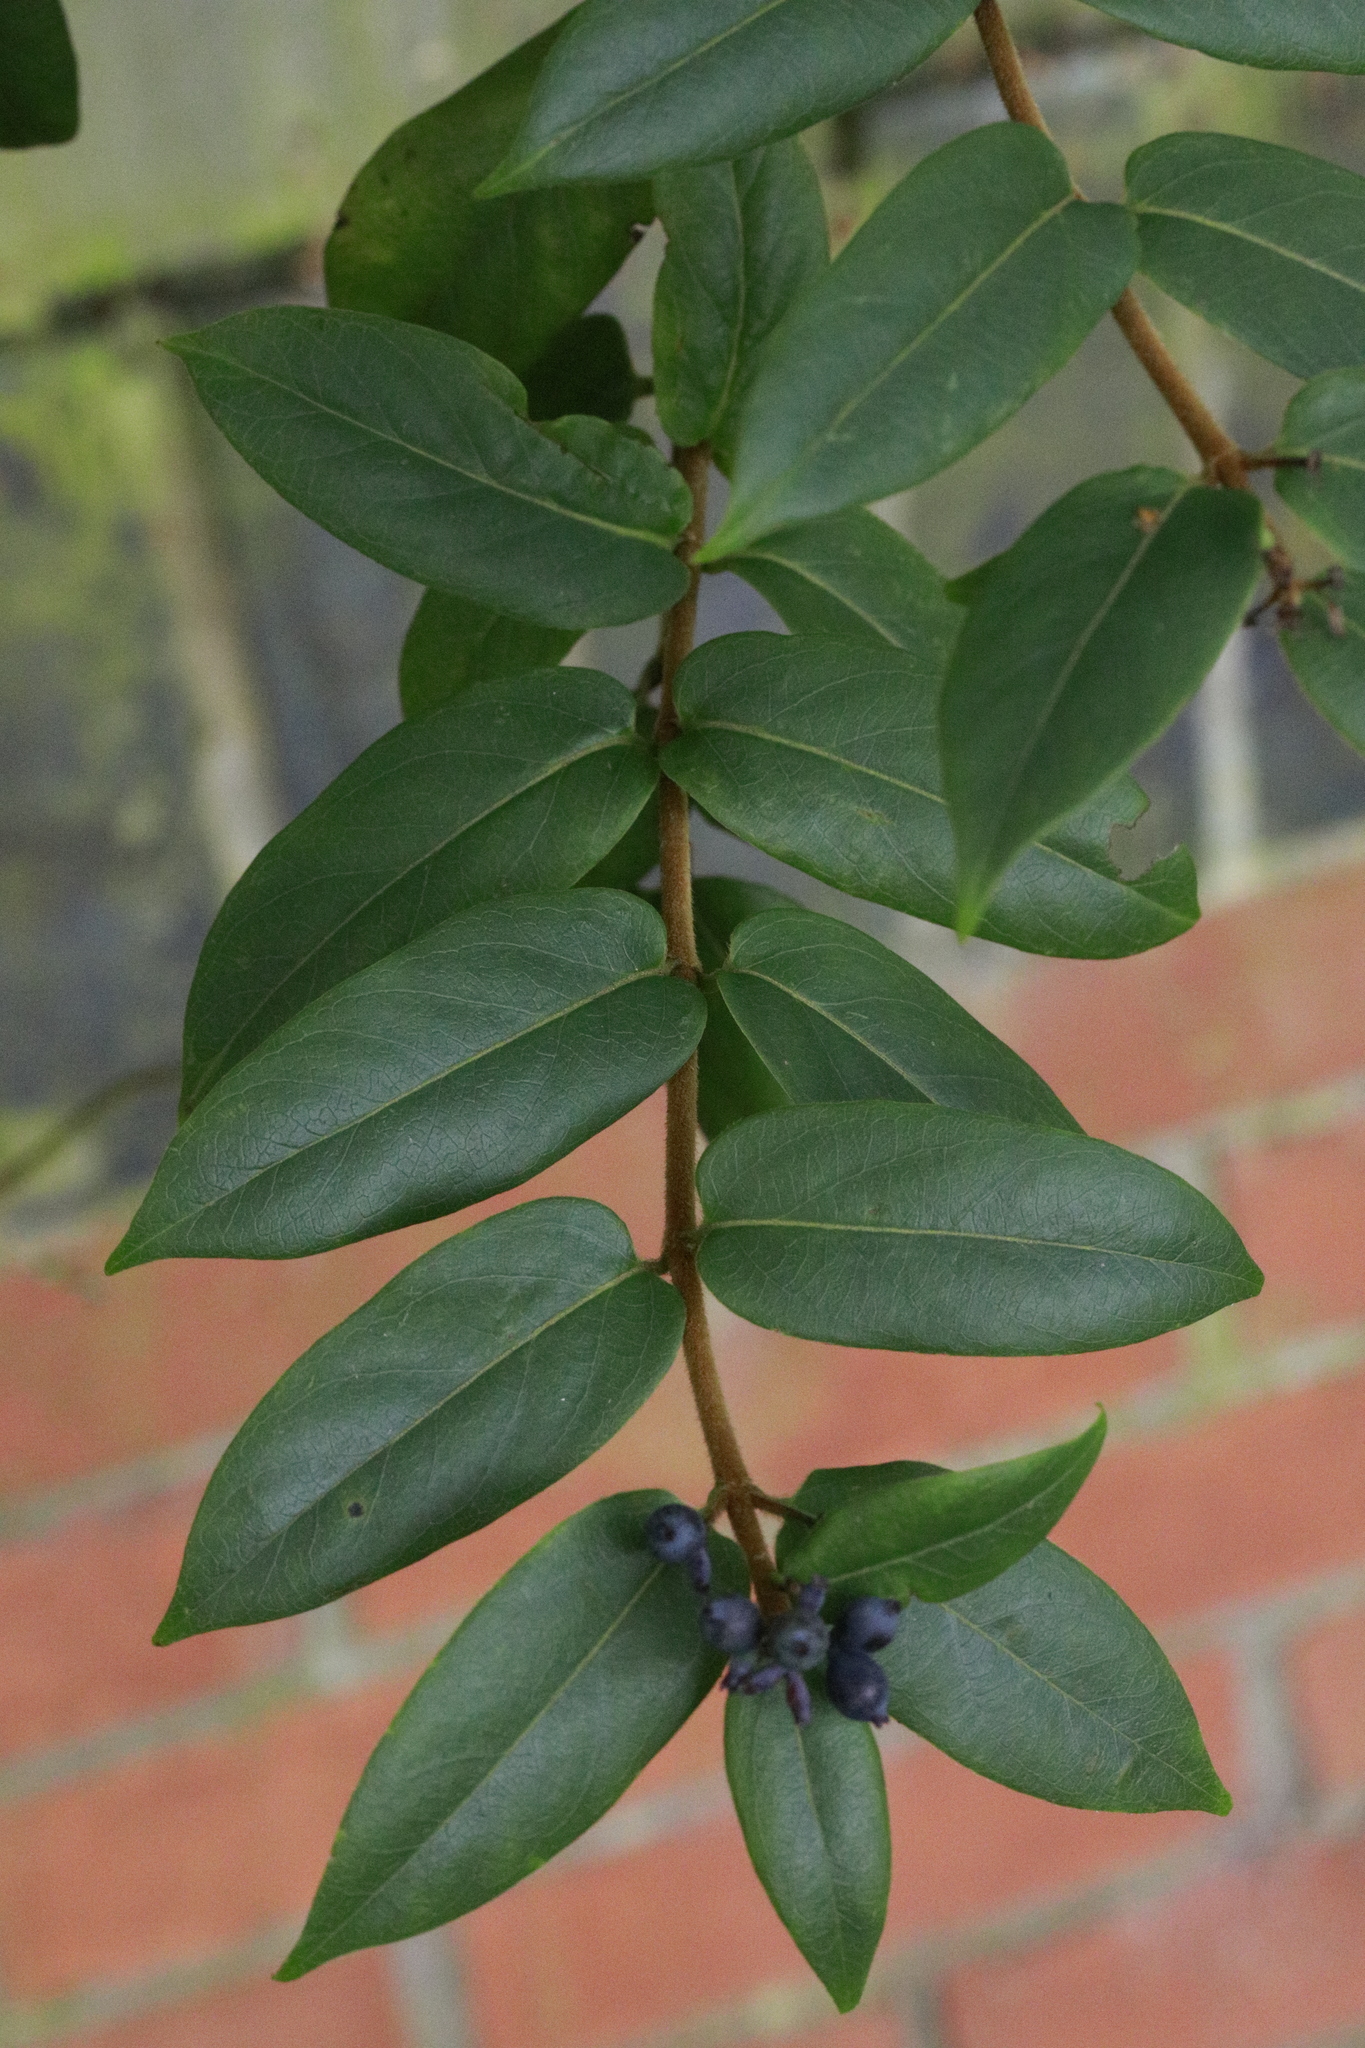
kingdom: Plantae
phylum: Tracheophyta
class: Magnoliopsida
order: Dipsacales
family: Caprifoliaceae
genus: Lonicera
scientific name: Lonicera acuminata
